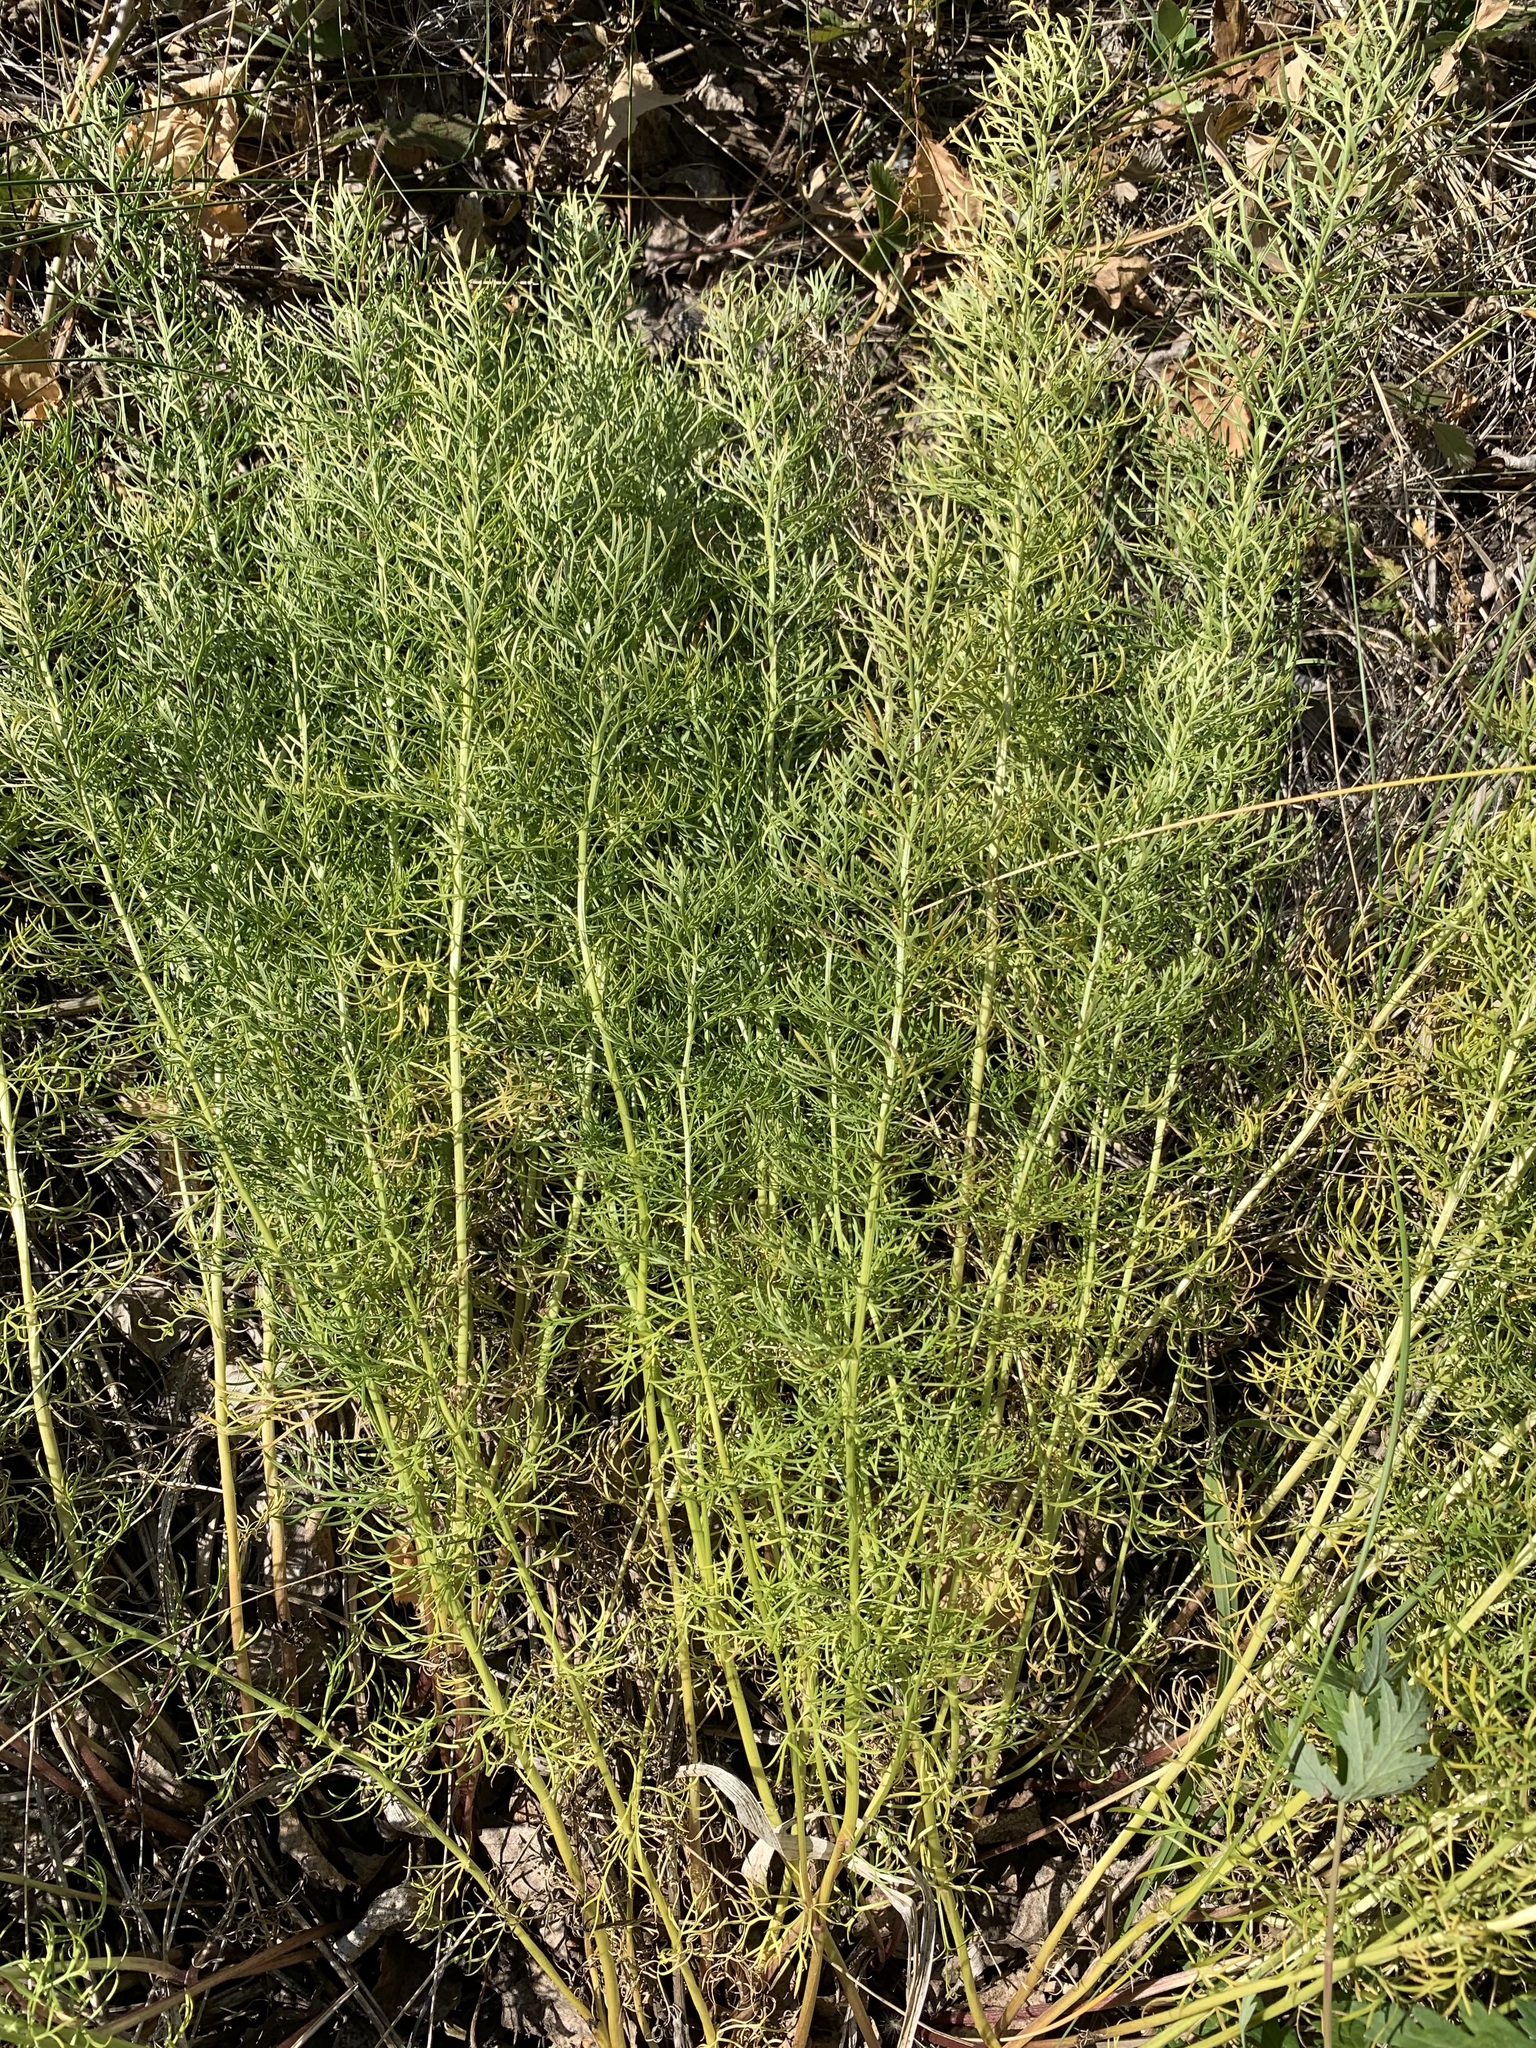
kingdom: Plantae
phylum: Tracheophyta
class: Magnoliopsida
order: Ranunculales
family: Ranunculaceae
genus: Adonis
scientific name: Adonis vernalis
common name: Yellow pheasants-eye
